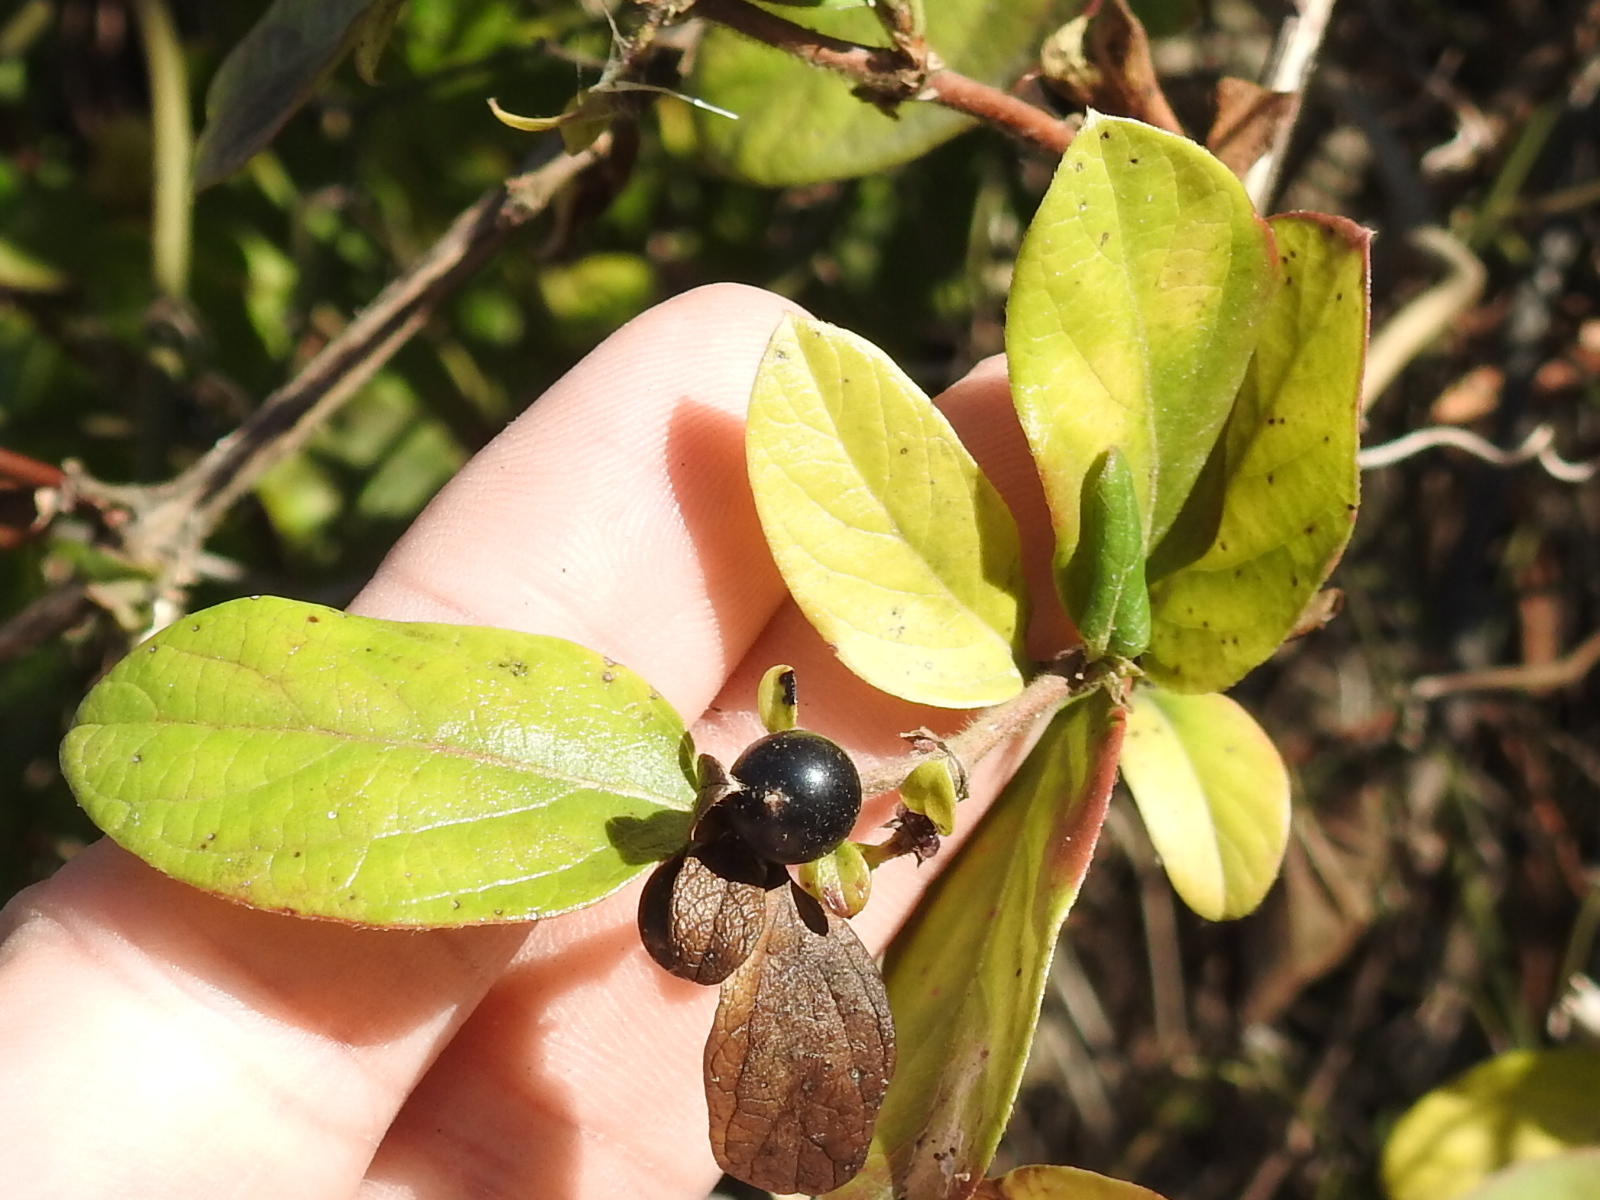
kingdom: Plantae
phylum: Tracheophyta
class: Magnoliopsida
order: Dipsacales
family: Caprifoliaceae
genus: Lonicera
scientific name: Lonicera japonica
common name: Japanese honeysuckle
